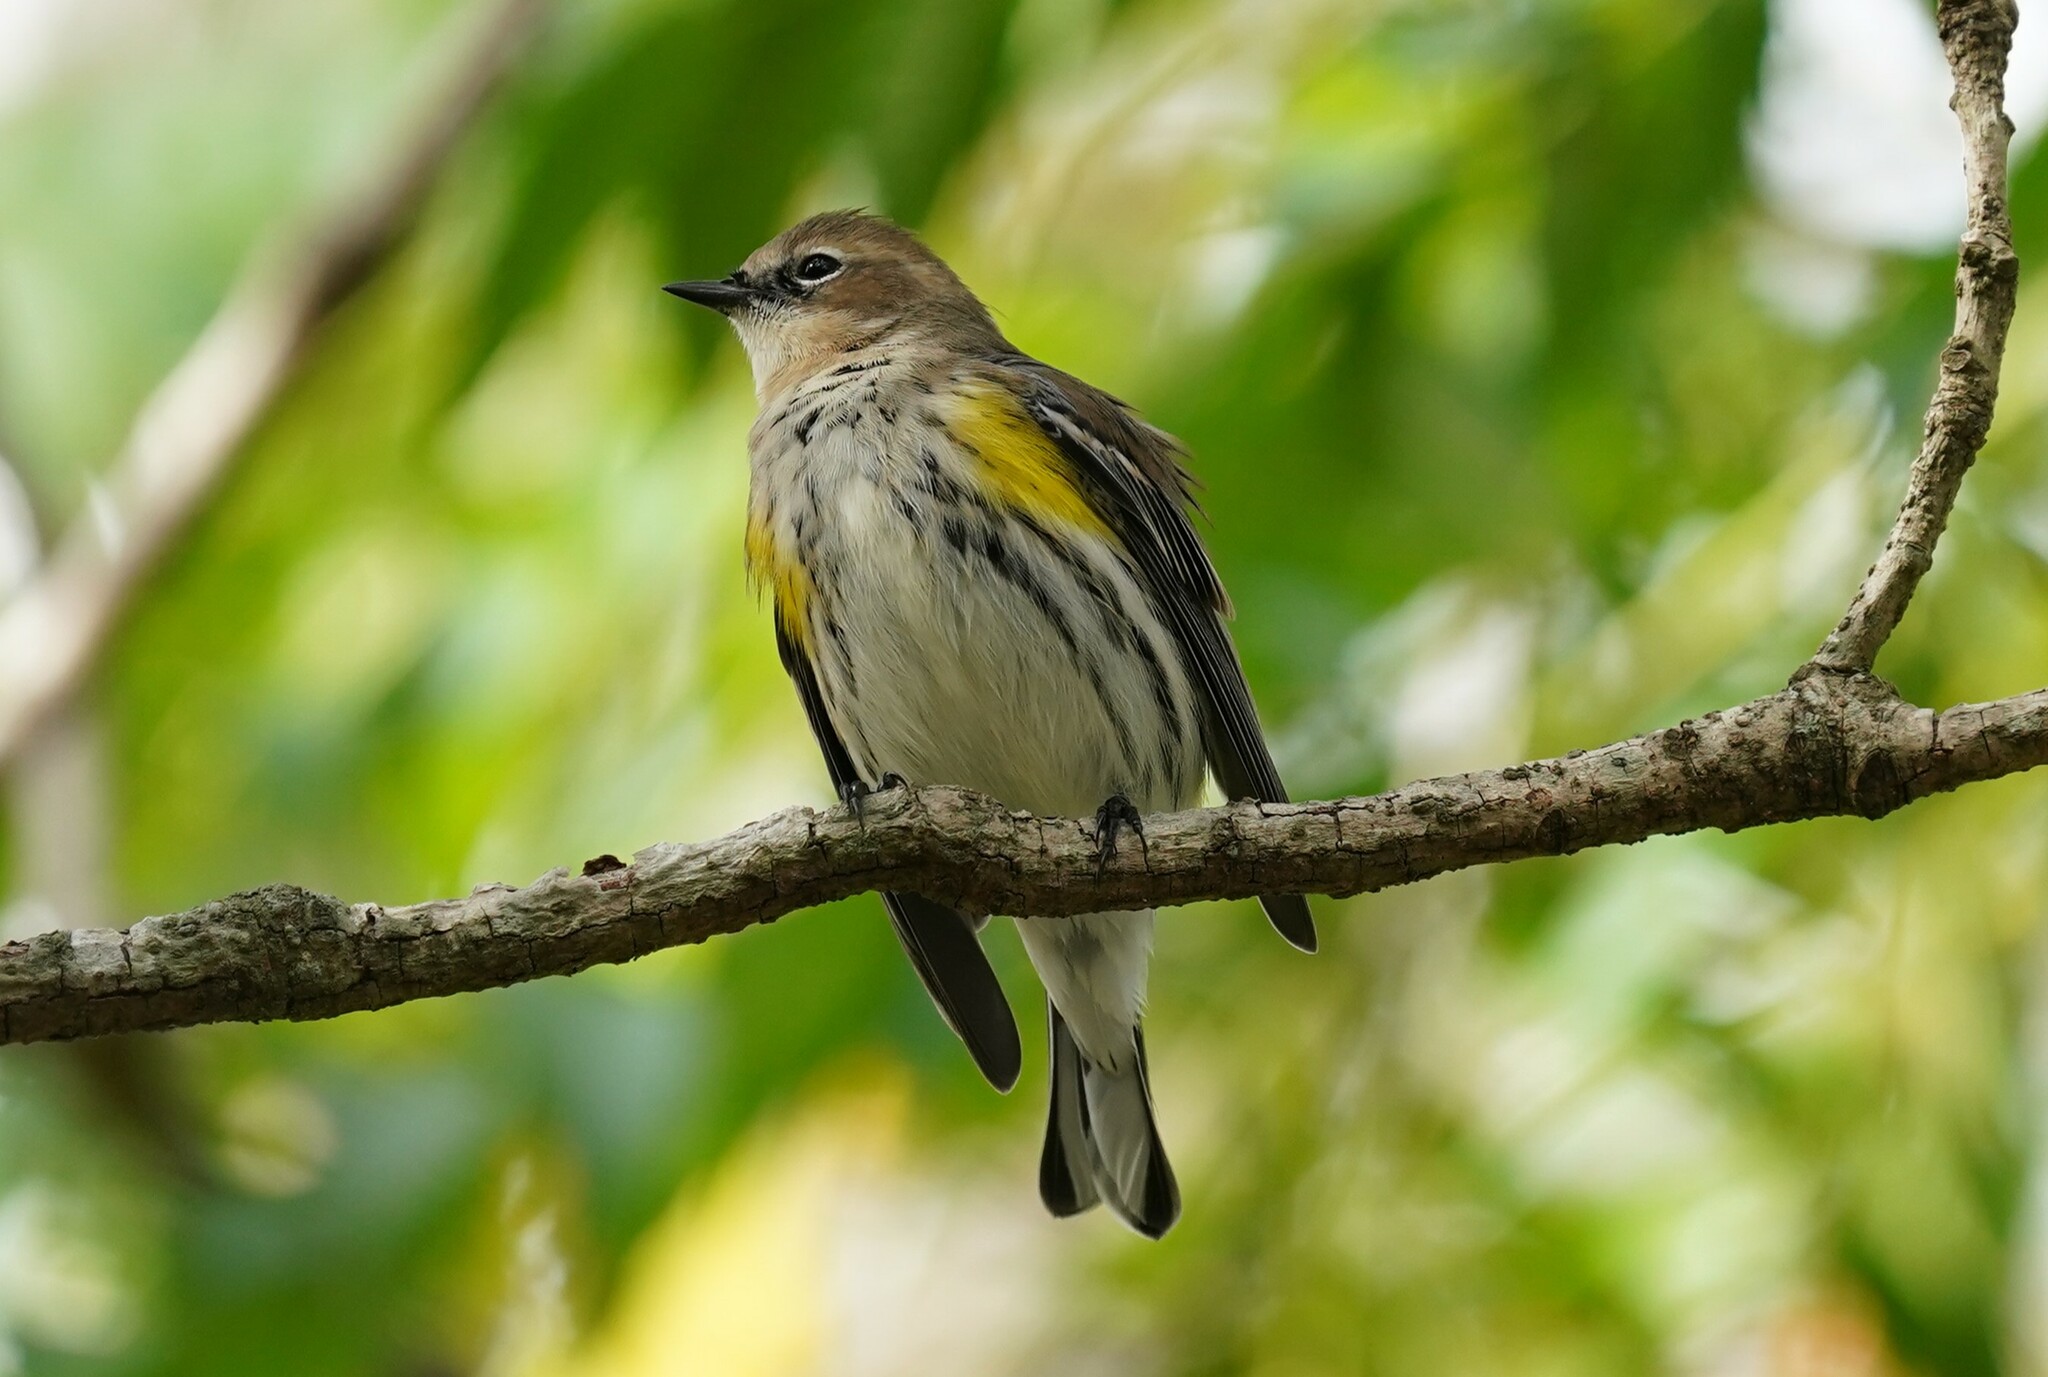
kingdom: Animalia
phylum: Chordata
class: Aves
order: Passeriformes
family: Parulidae
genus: Setophaga
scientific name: Setophaga coronata
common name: Myrtle warbler
